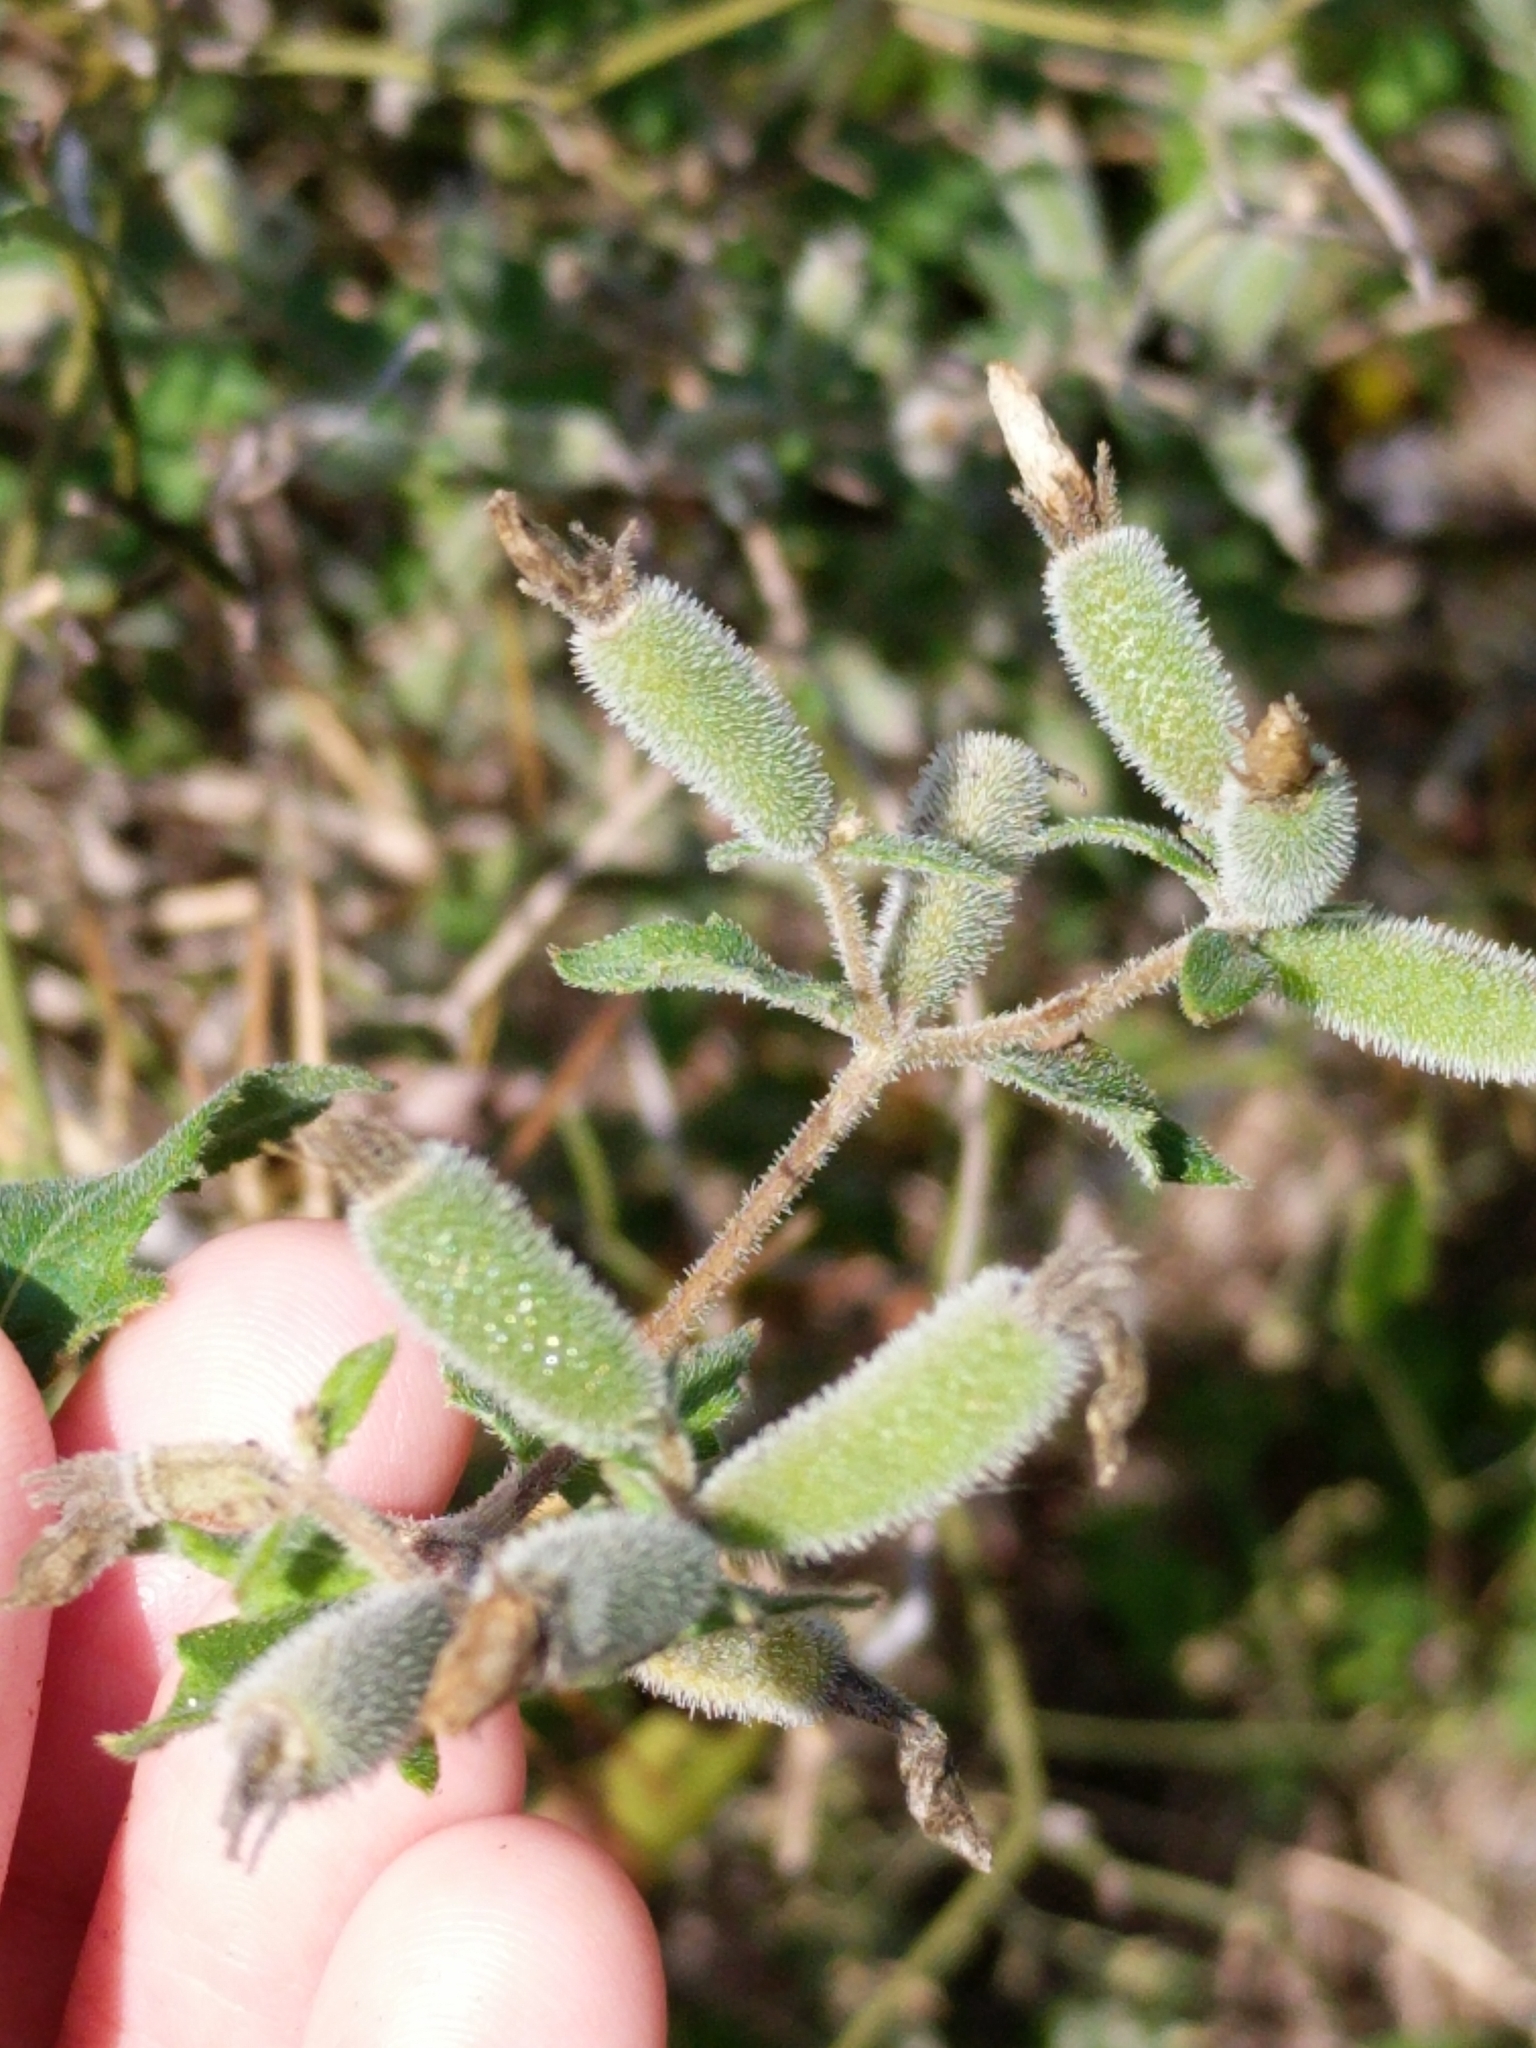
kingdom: Plantae
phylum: Tracheophyta
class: Magnoliopsida
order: Cornales
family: Loasaceae
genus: Mentzelia
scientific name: Mentzelia texana
